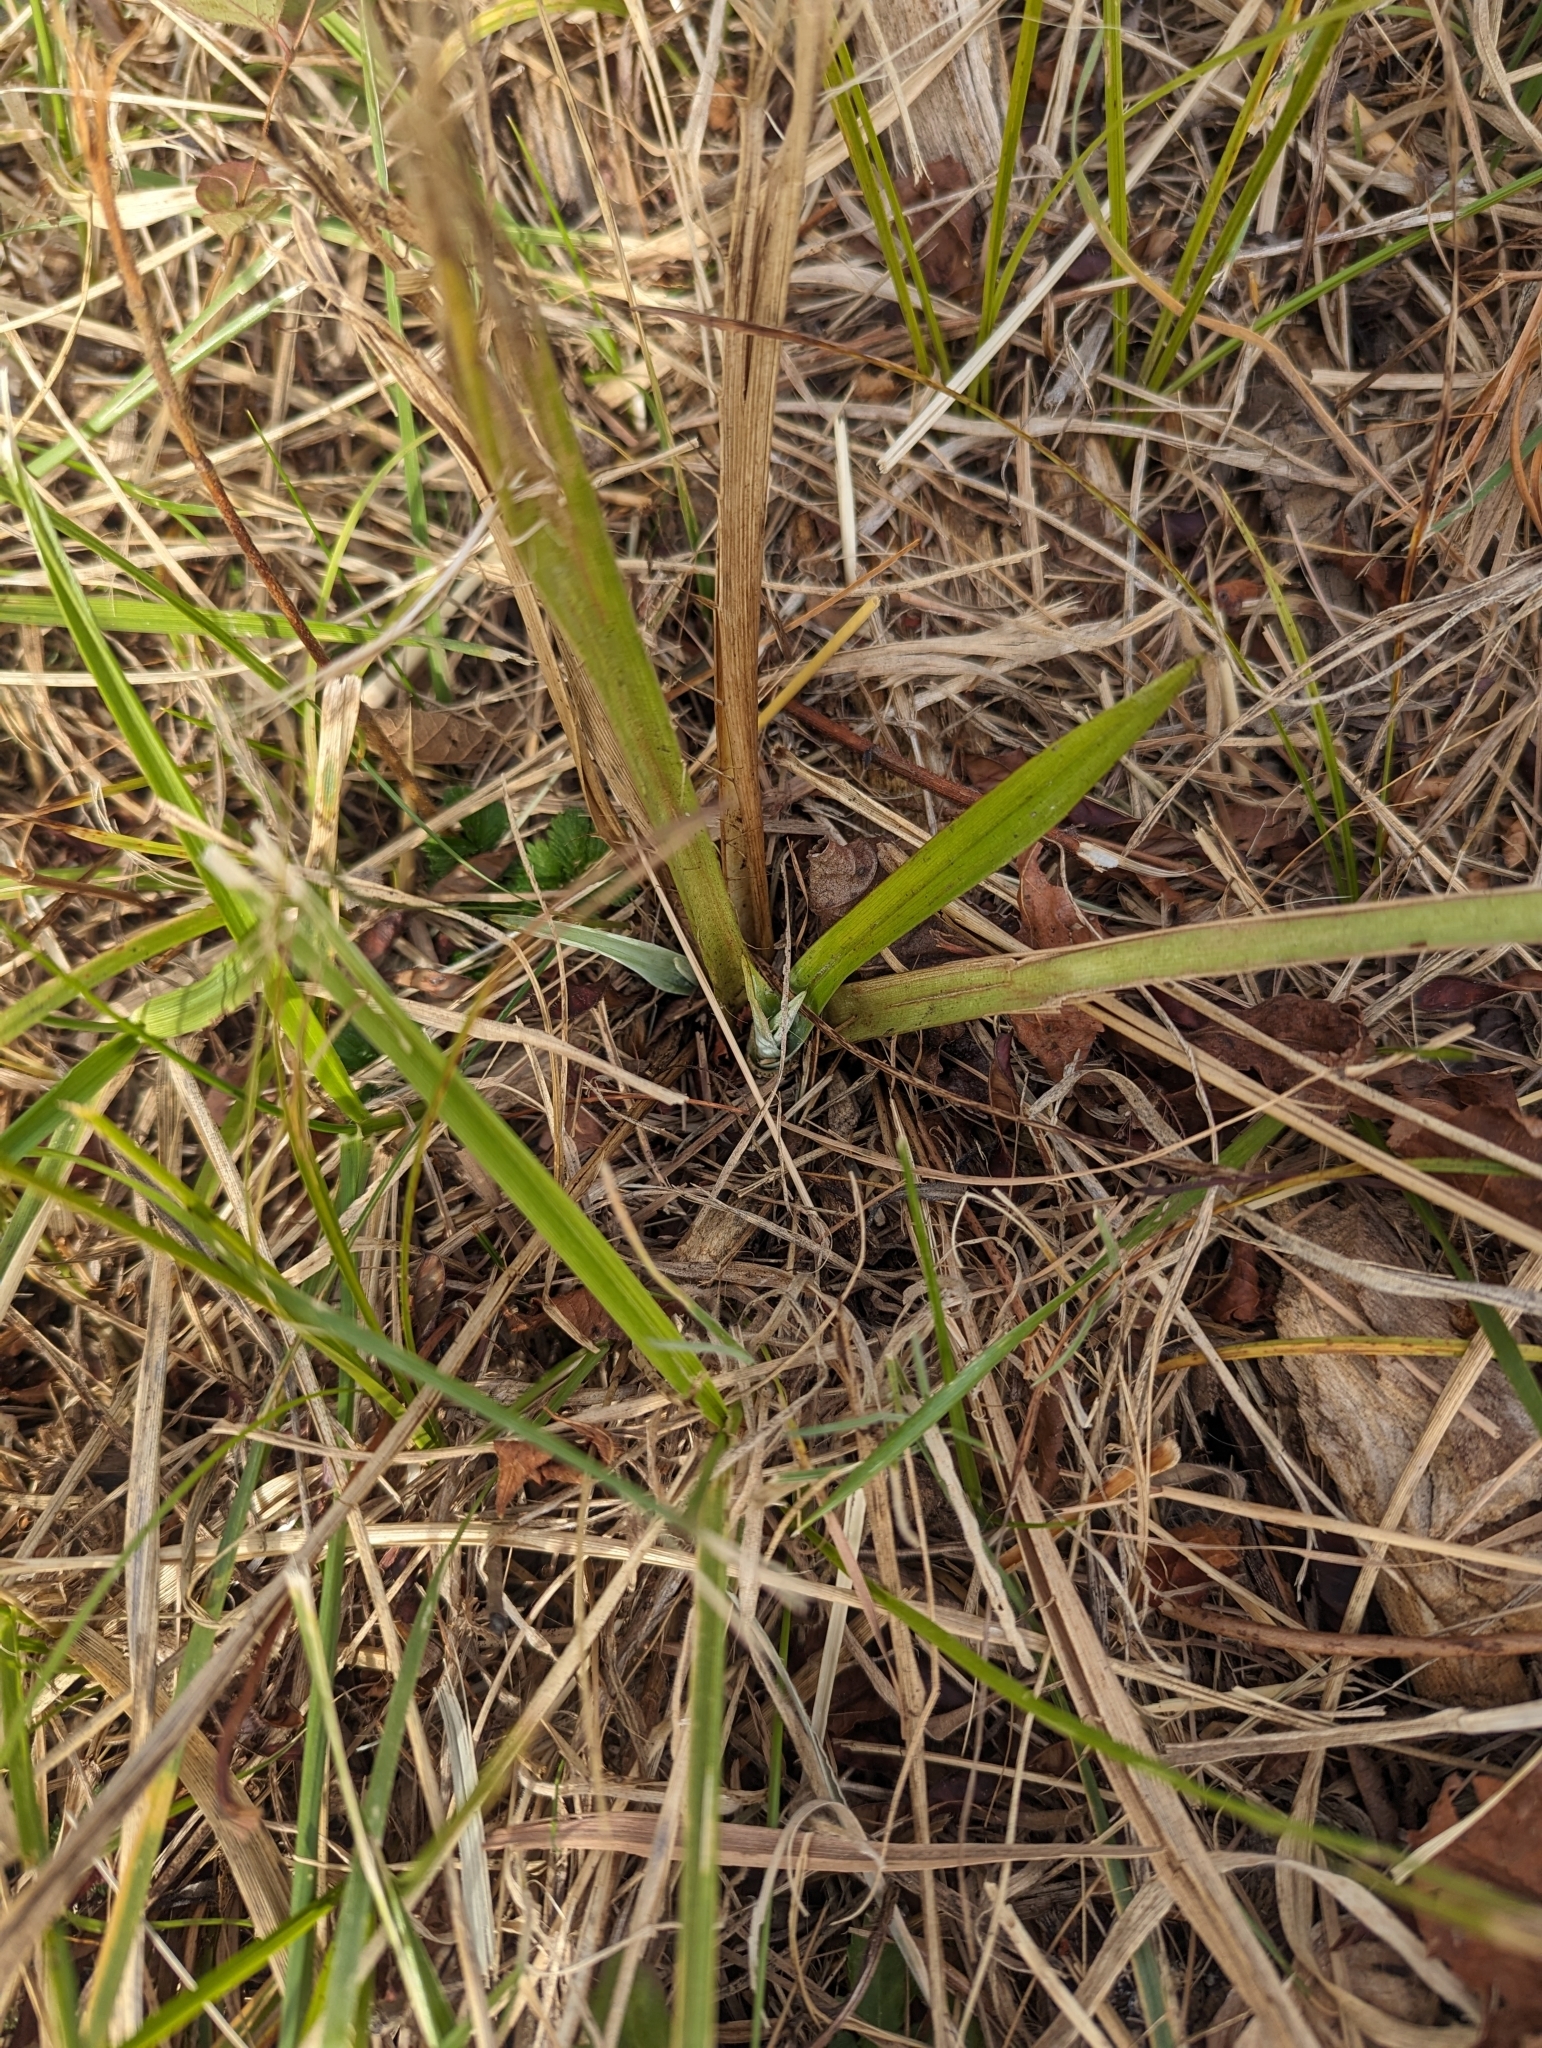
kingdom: Plantae
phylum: Tracheophyta
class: Magnoliopsida
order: Apiales
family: Apiaceae
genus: Eryngium
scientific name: Eryngium yuccifolium
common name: Button eryngo
